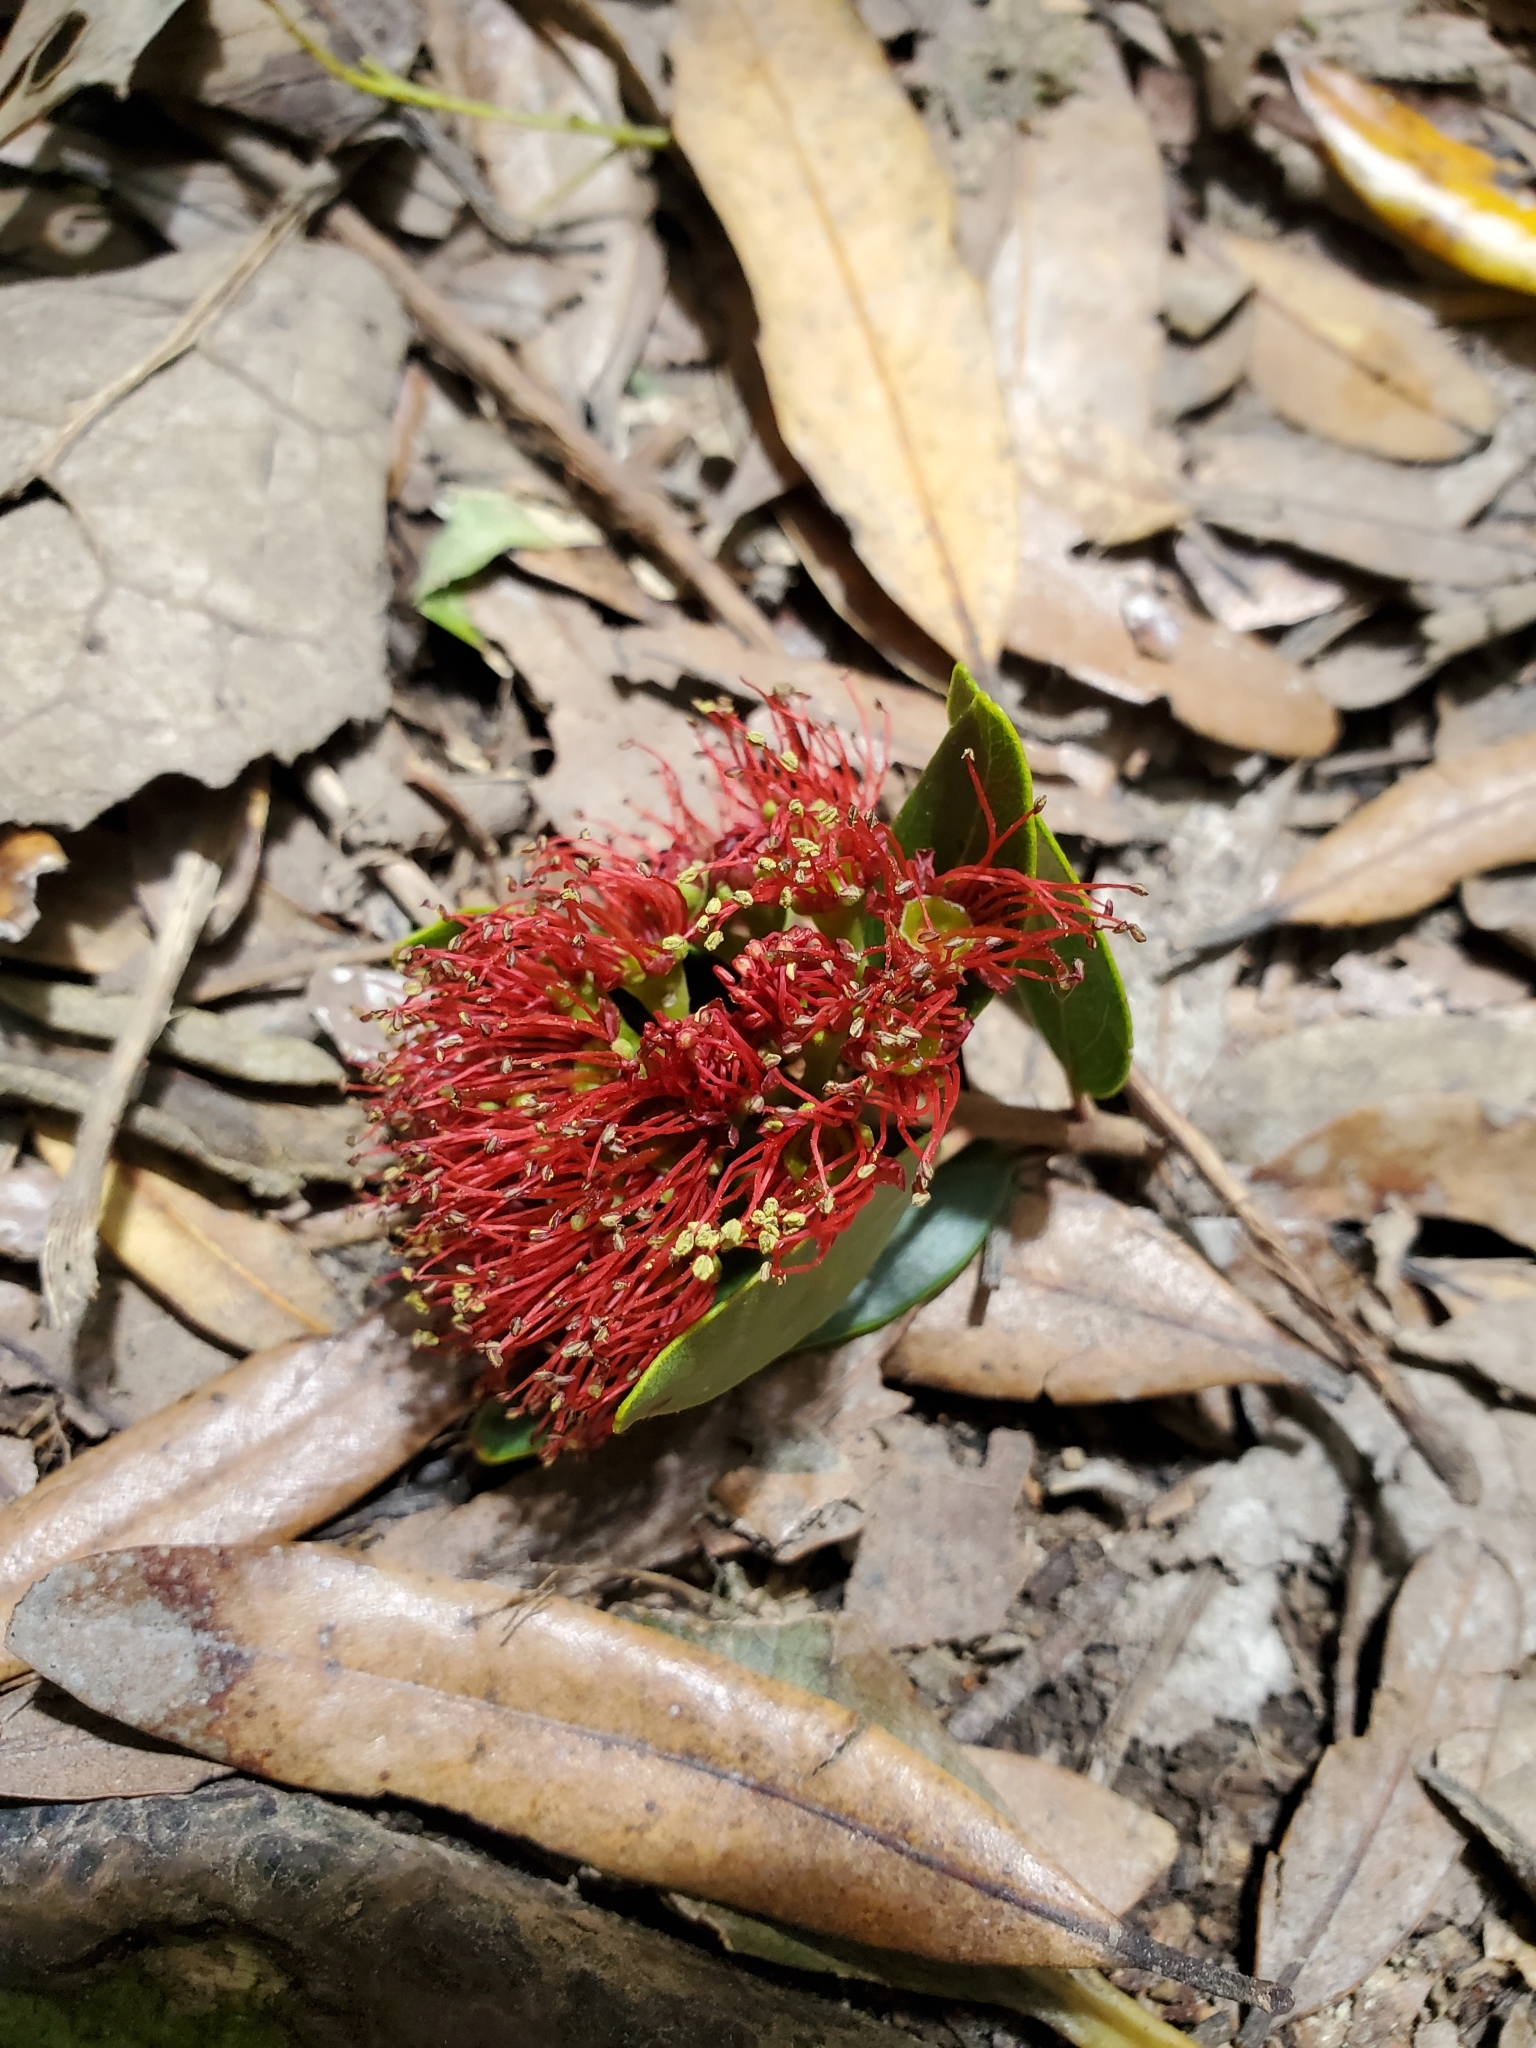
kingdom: Plantae
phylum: Tracheophyta
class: Magnoliopsida
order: Myrtales
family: Myrtaceae
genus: Metrosideros
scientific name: Metrosideros robusta
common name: Northern rata
